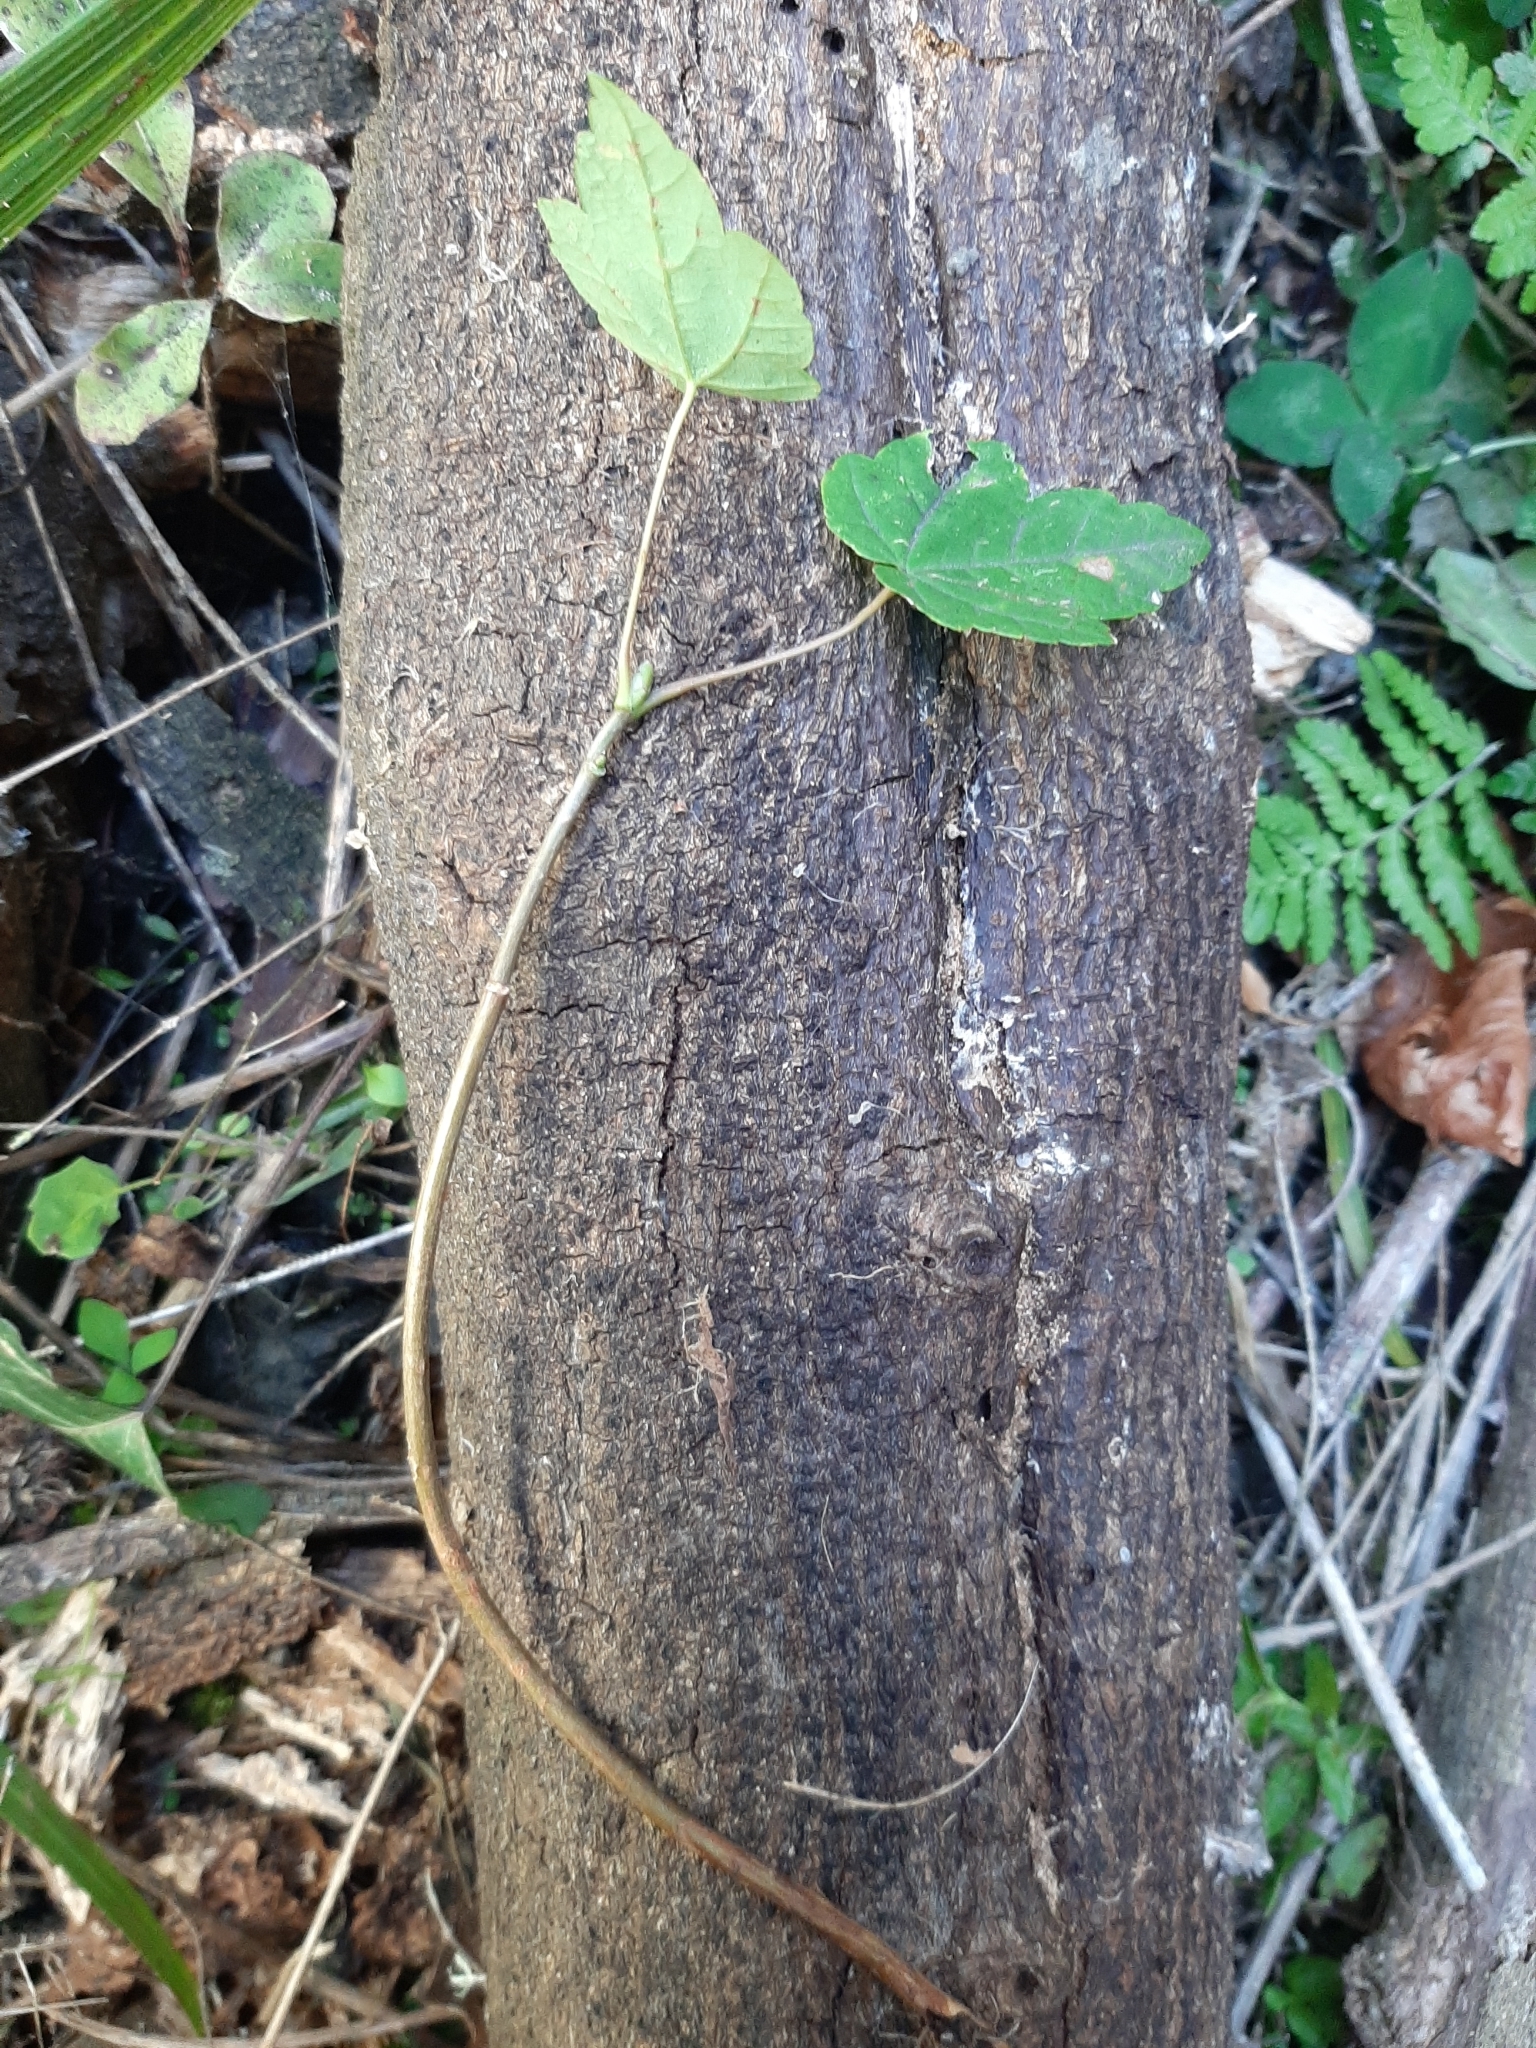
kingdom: Plantae
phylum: Tracheophyta
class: Magnoliopsida
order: Sapindales
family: Sapindaceae
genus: Acer
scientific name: Acer pseudoplatanus
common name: Sycamore
